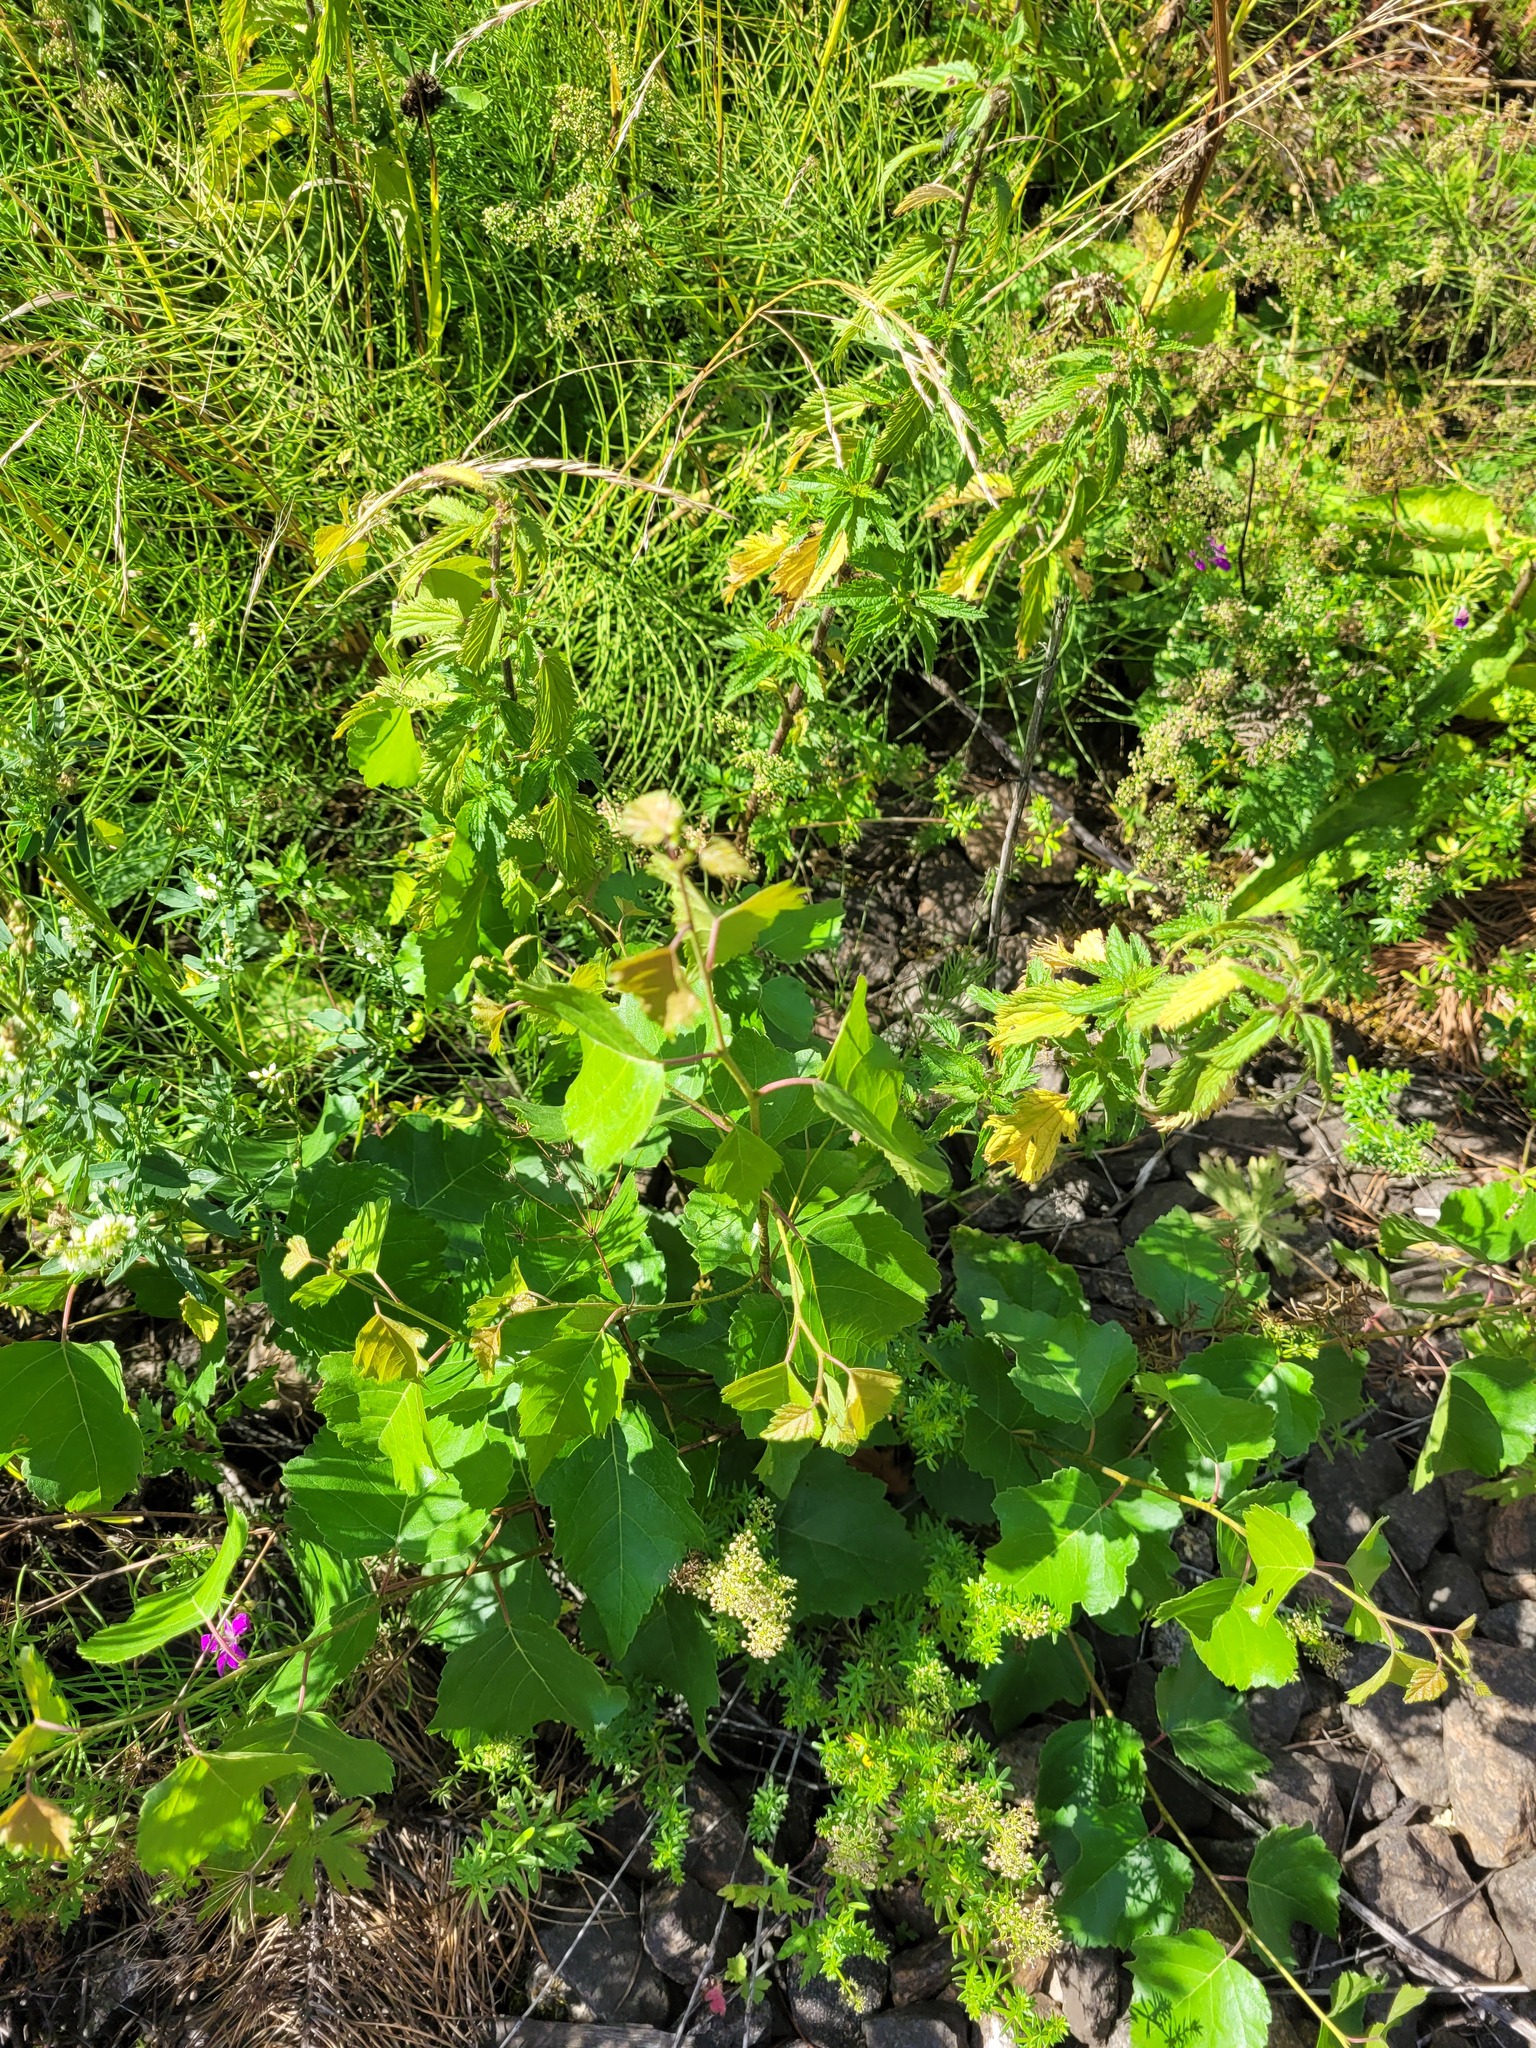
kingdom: Plantae
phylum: Tracheophyta
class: Magnoliopsida
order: Fagales
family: Betulaceae
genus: Betula
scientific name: Betula pendula
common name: Silver birch
